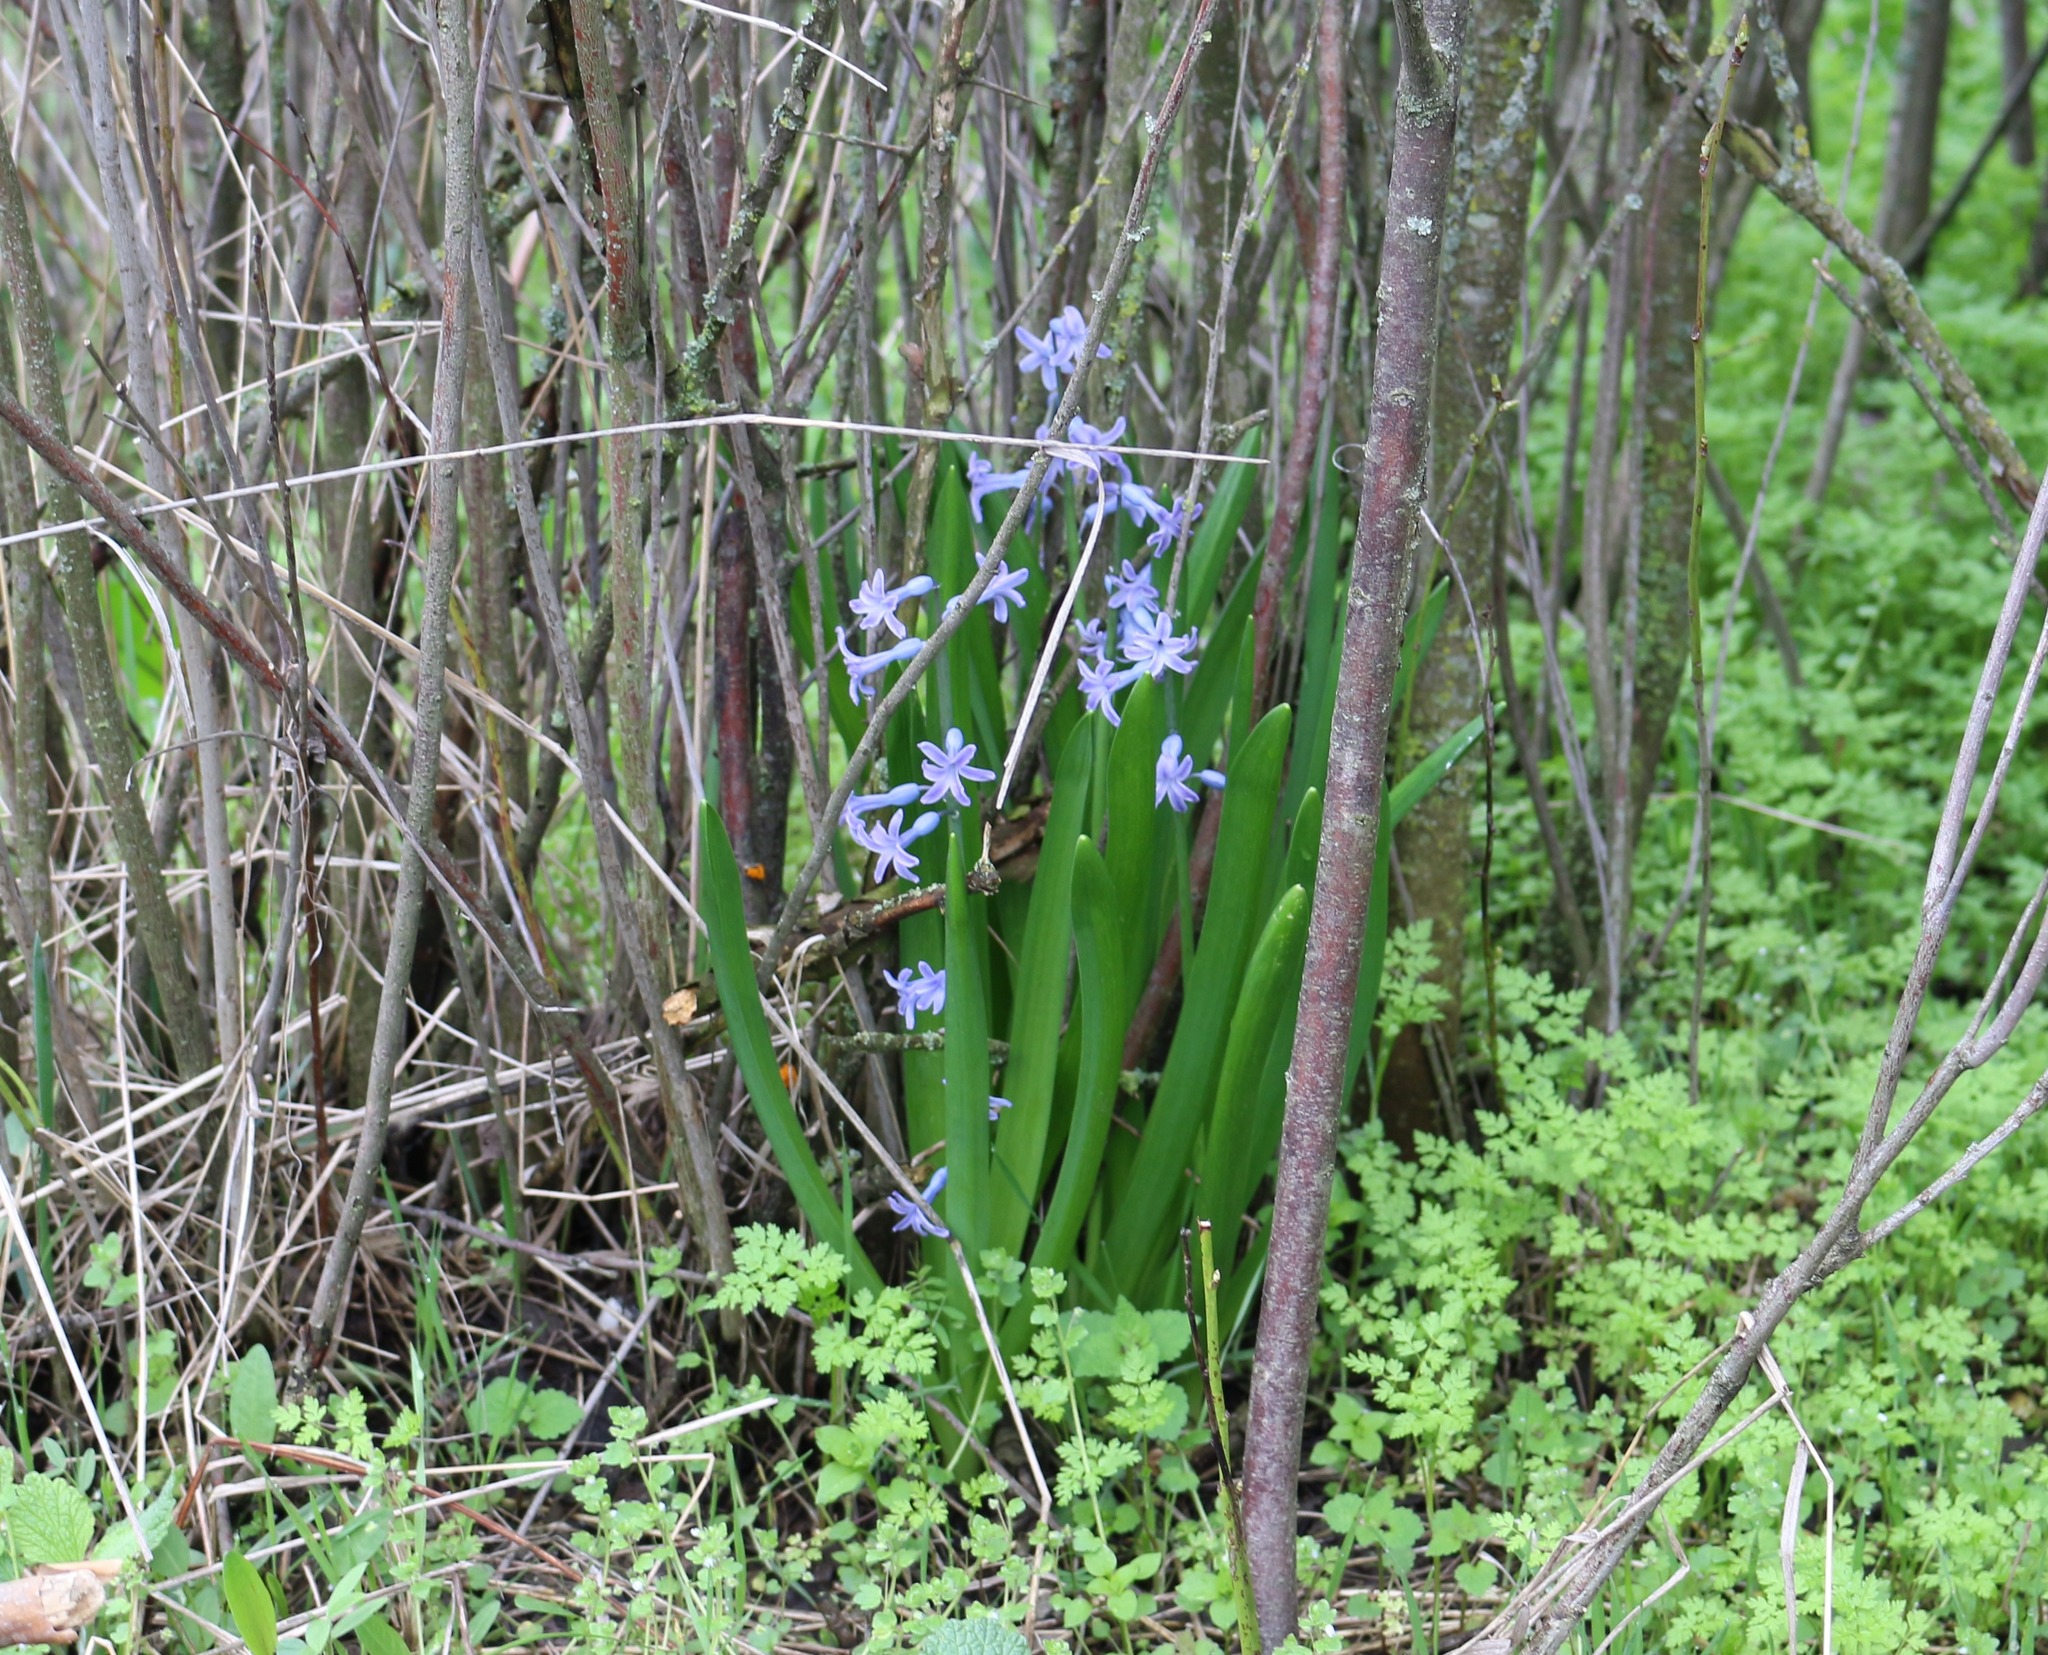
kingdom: Plantae
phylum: Tracheophyta
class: Liliopsida
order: Asparagales
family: Asparagaceae
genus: Hyacinthus
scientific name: Hyacinthus orientalis
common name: Hyacinth
